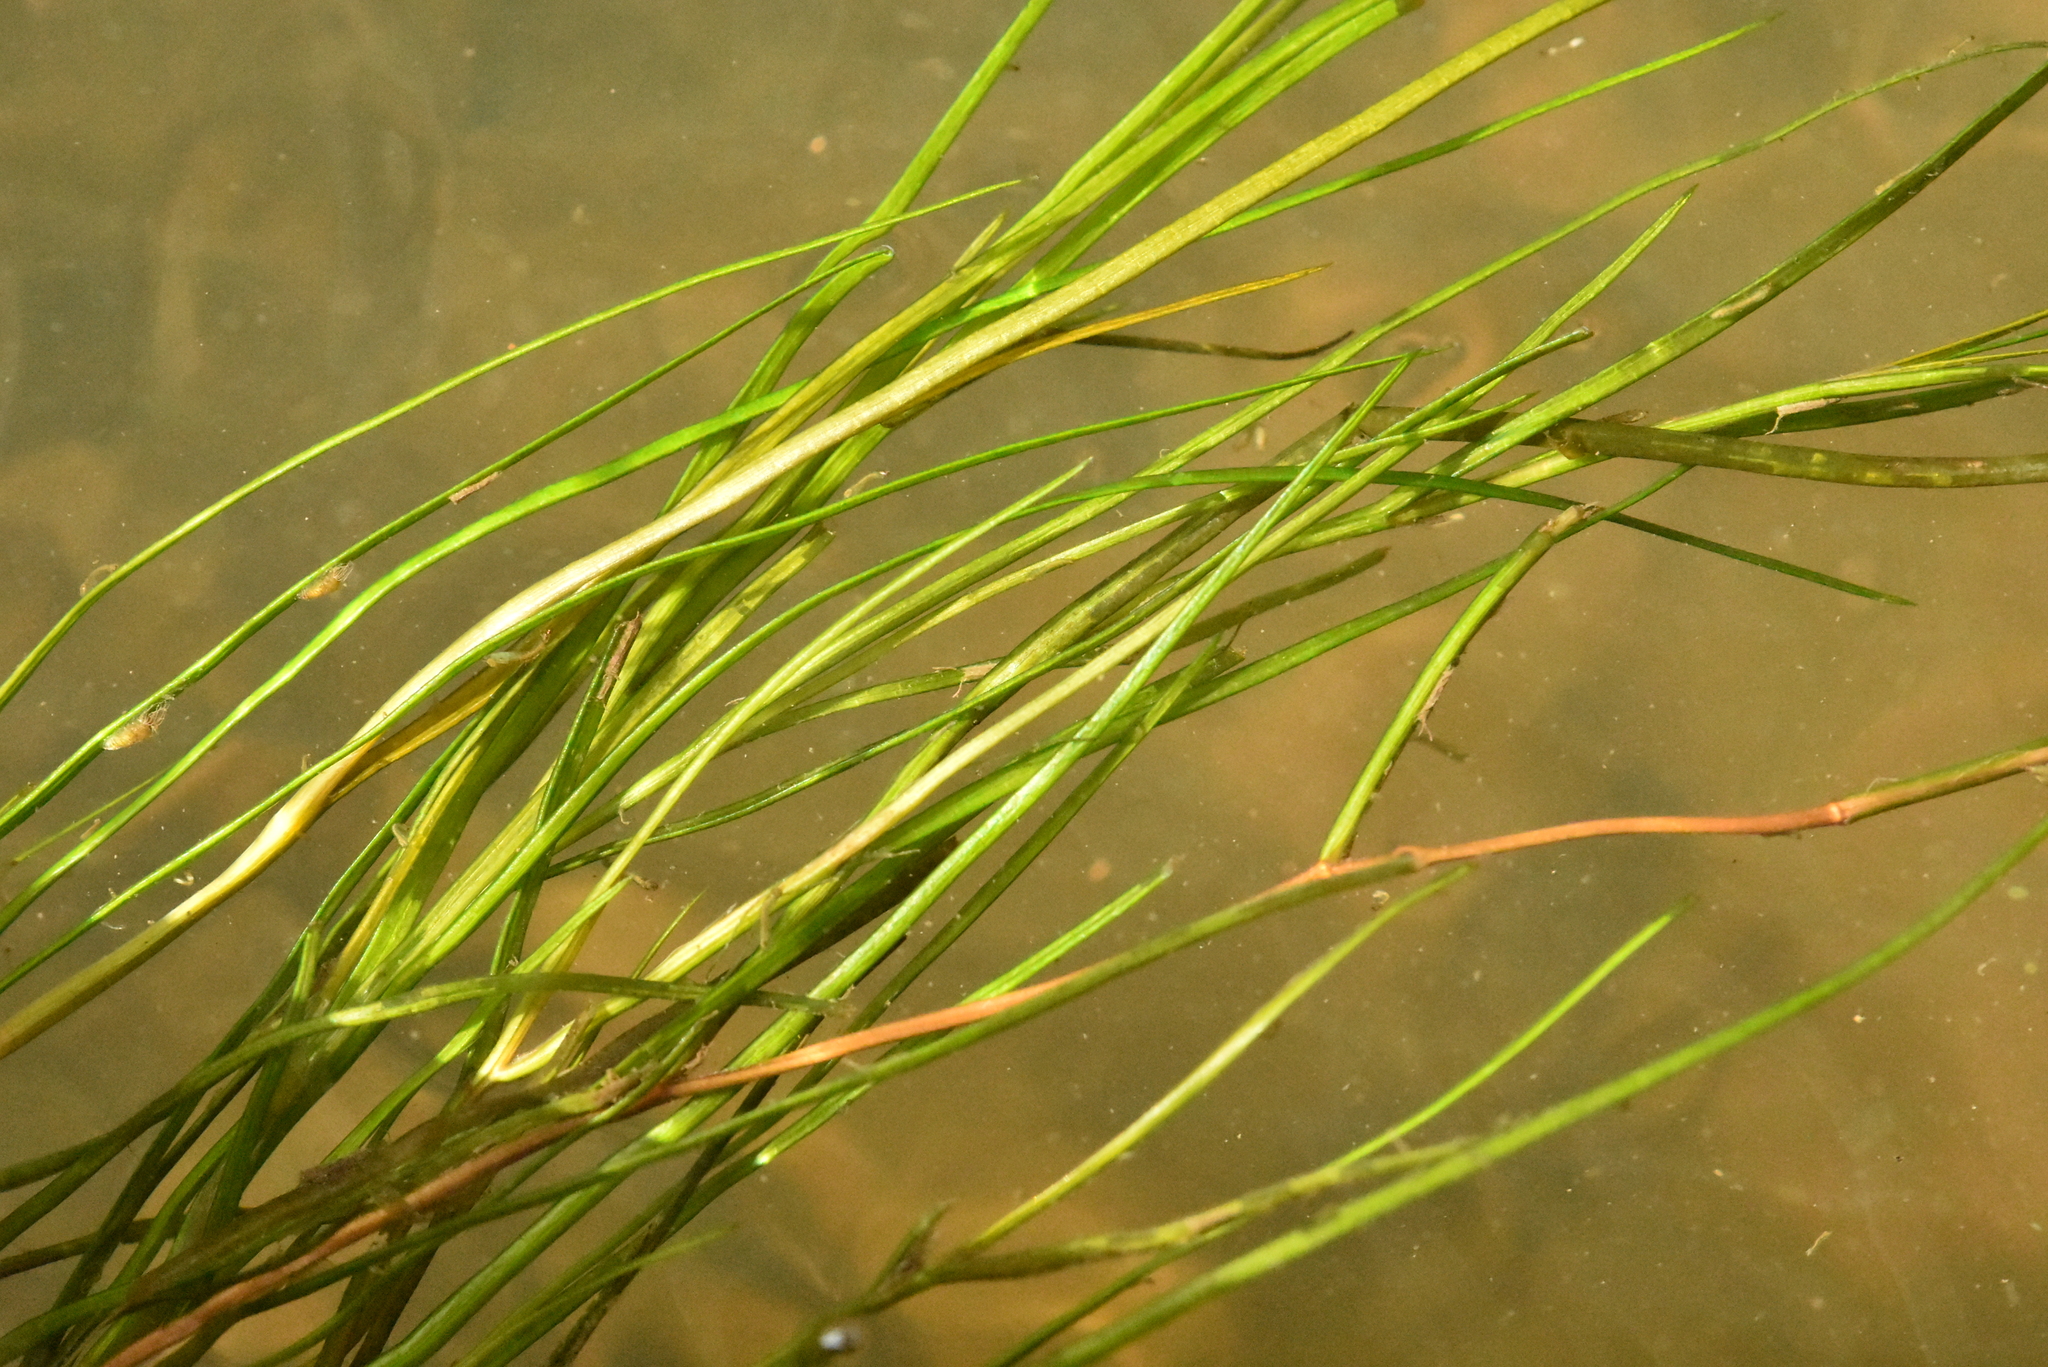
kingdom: Plantae
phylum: Tracheophyta
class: Liliopsida
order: Alismatales
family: Potamogetonaceae
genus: Stuckenia
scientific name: Stuckenia pectinata
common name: Sago pondweed
